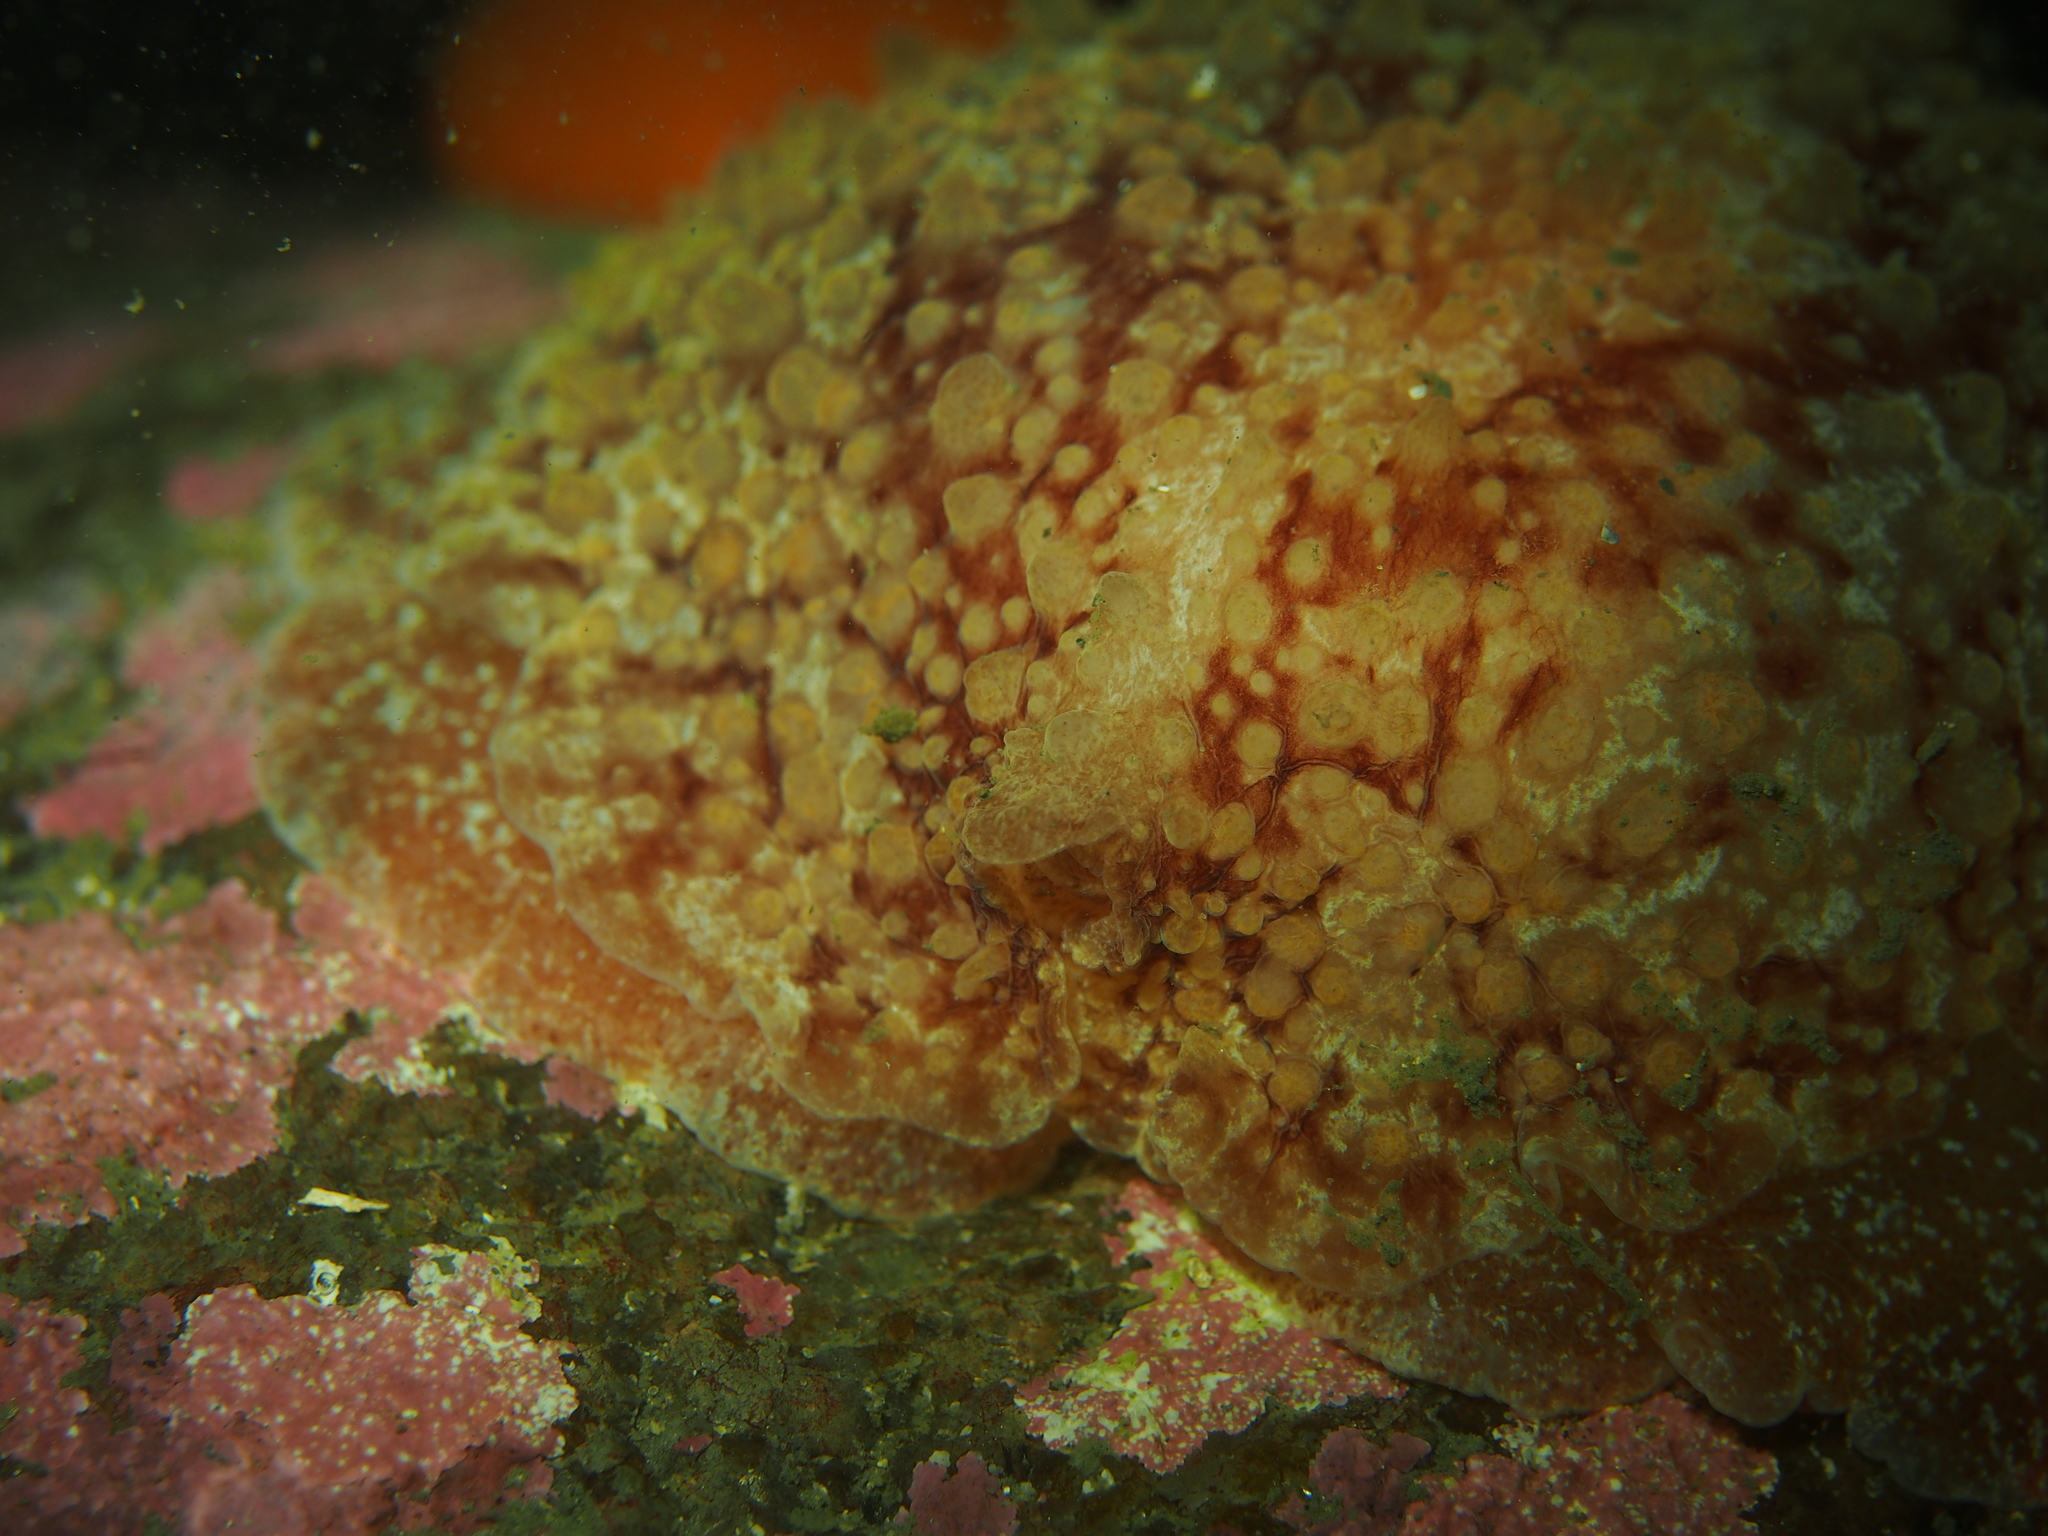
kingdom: Animalia
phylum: Mollusca
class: Gastropoda
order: Pleurobranchida
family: Pleurobranchidae
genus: Pleurobranchus
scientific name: Pleurobranchus membranaceus
